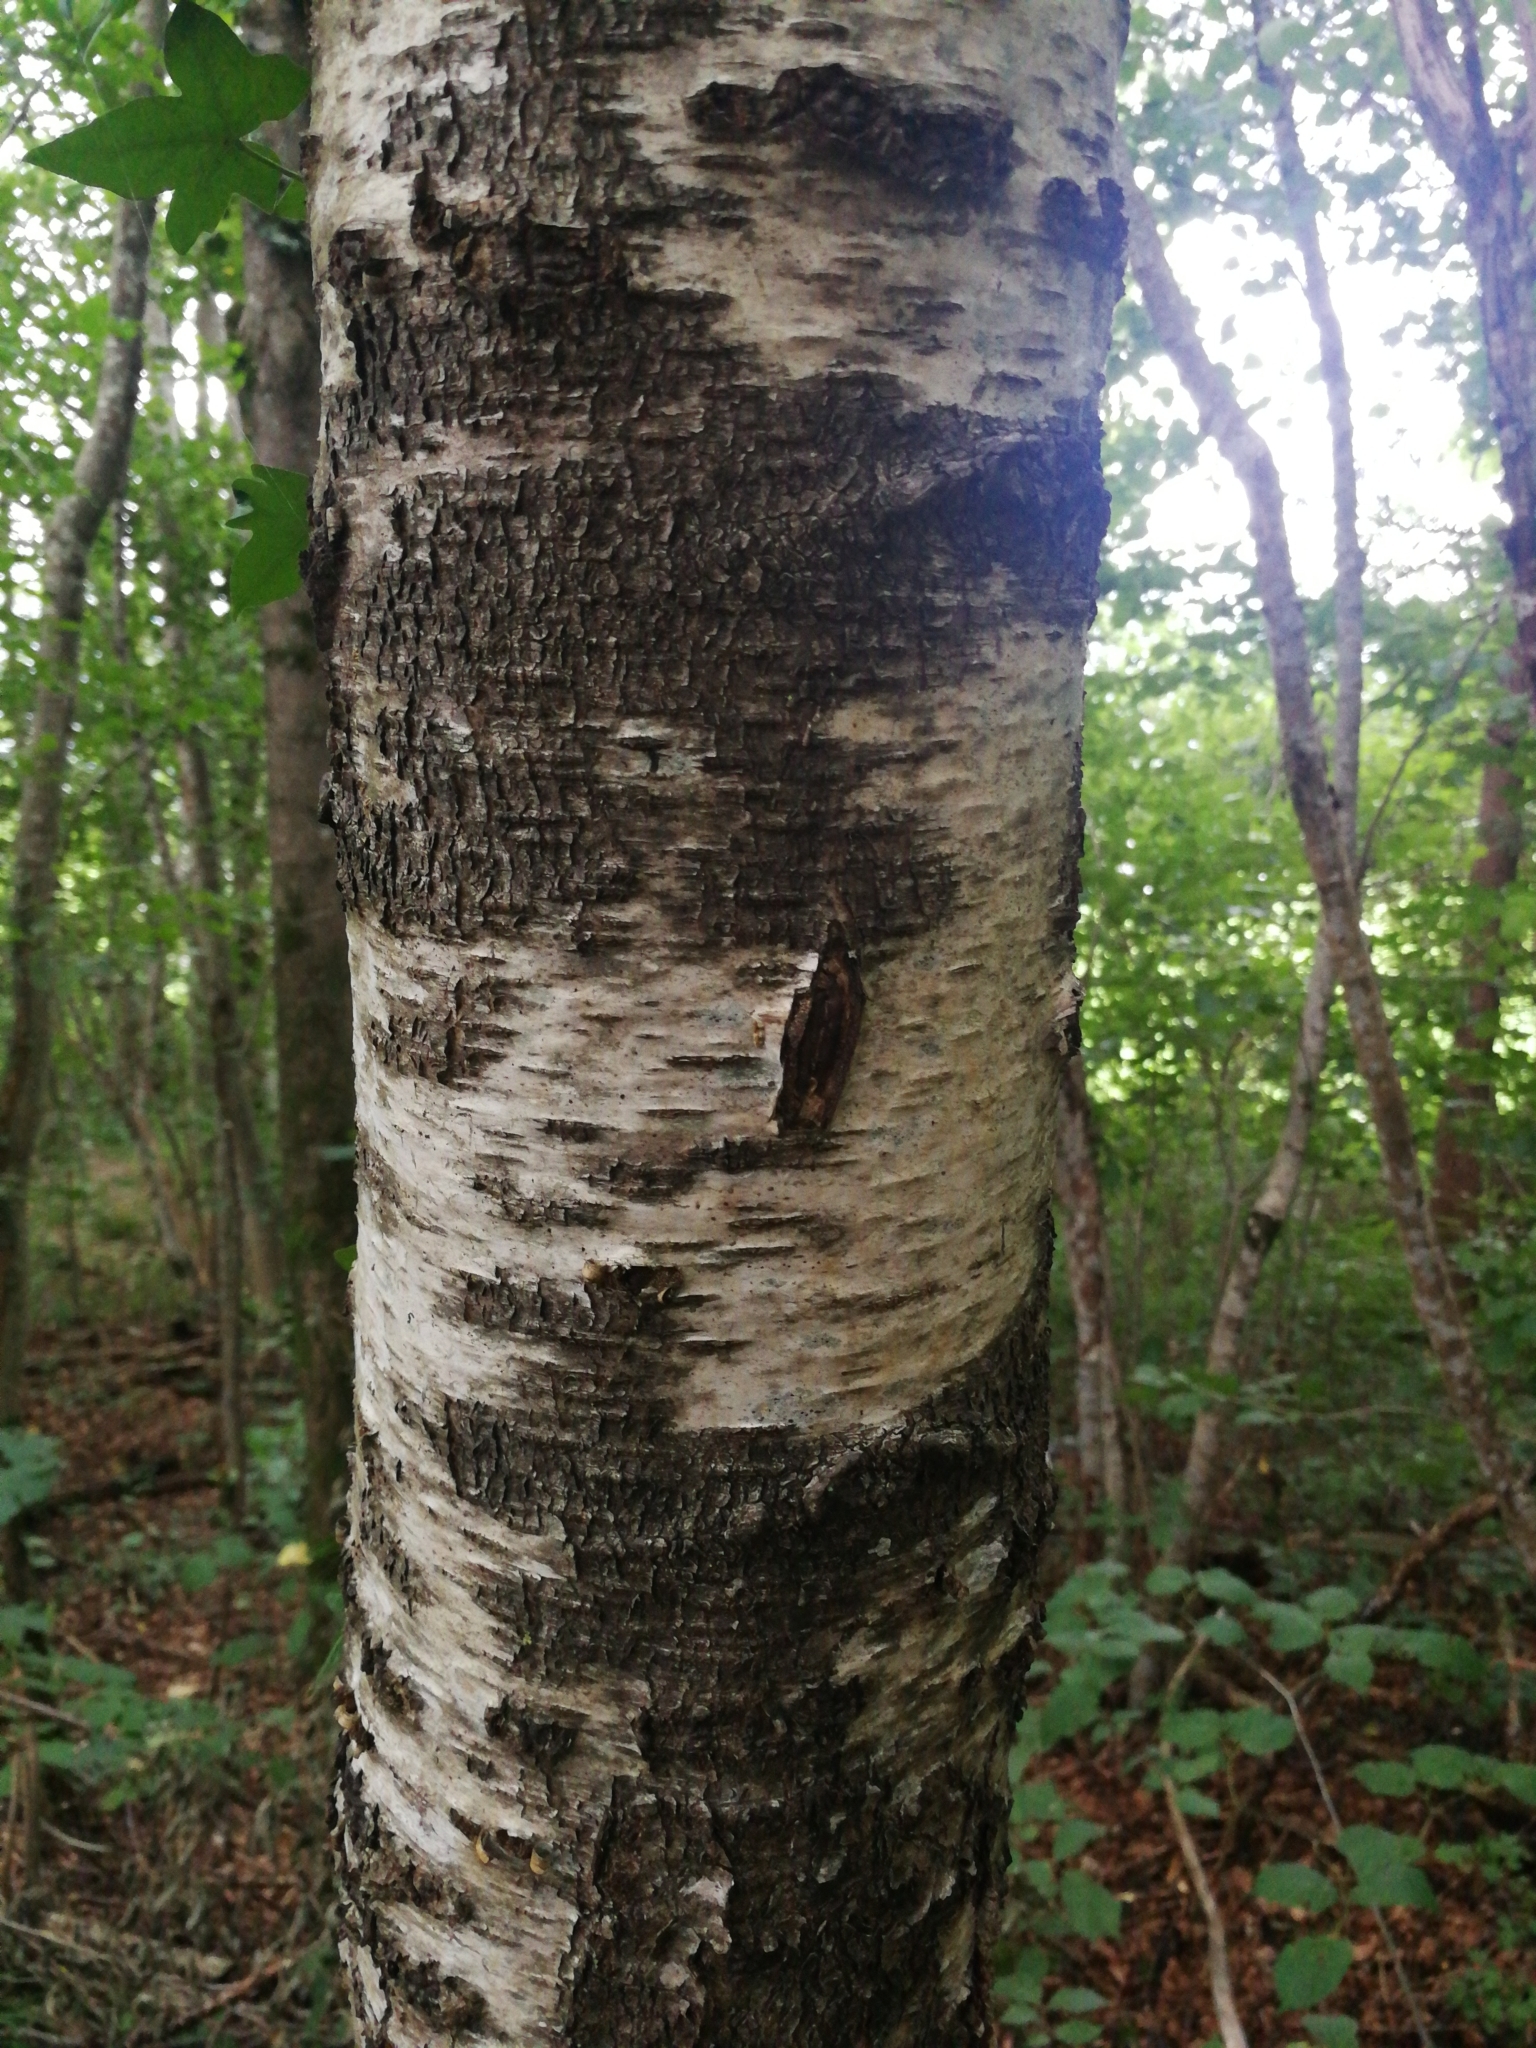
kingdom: Plantae
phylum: Tracheophyta
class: Magnoliopsida
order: Fagales
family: Betulaceae
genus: Betula
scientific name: Betula pendula
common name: Silver birch
